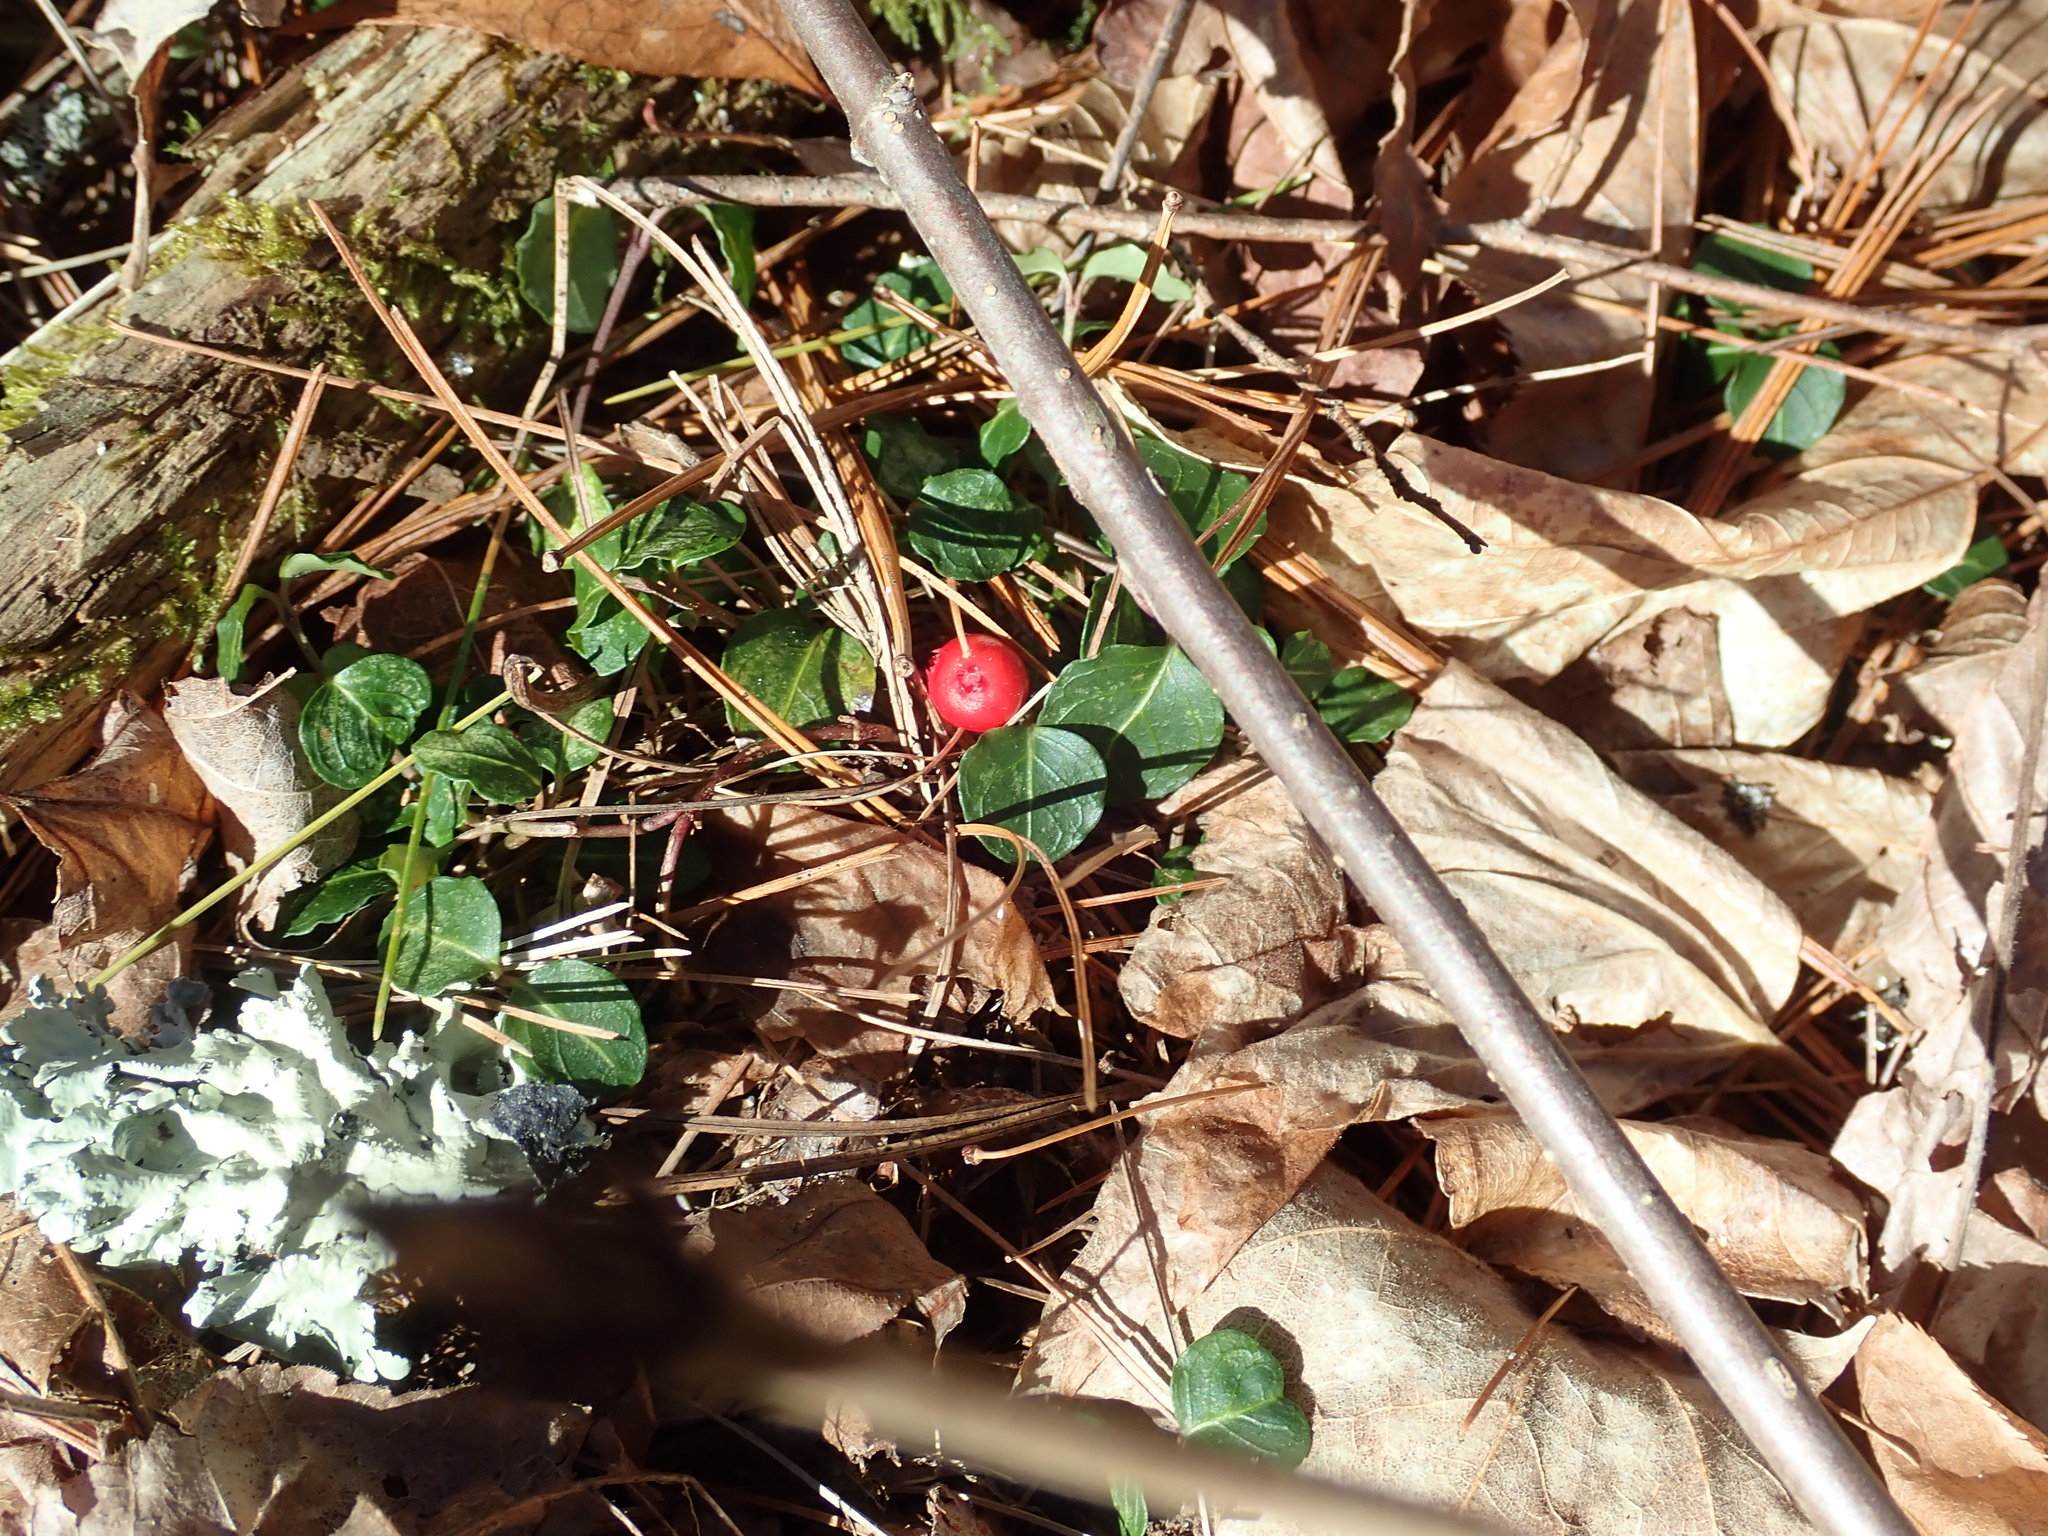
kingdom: Plantae
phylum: Tracheophyta
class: Magnoliopsida
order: Gentianales
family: Rubiaceae
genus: Mitchella
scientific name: Mitchella repens
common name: Partridge-berry
